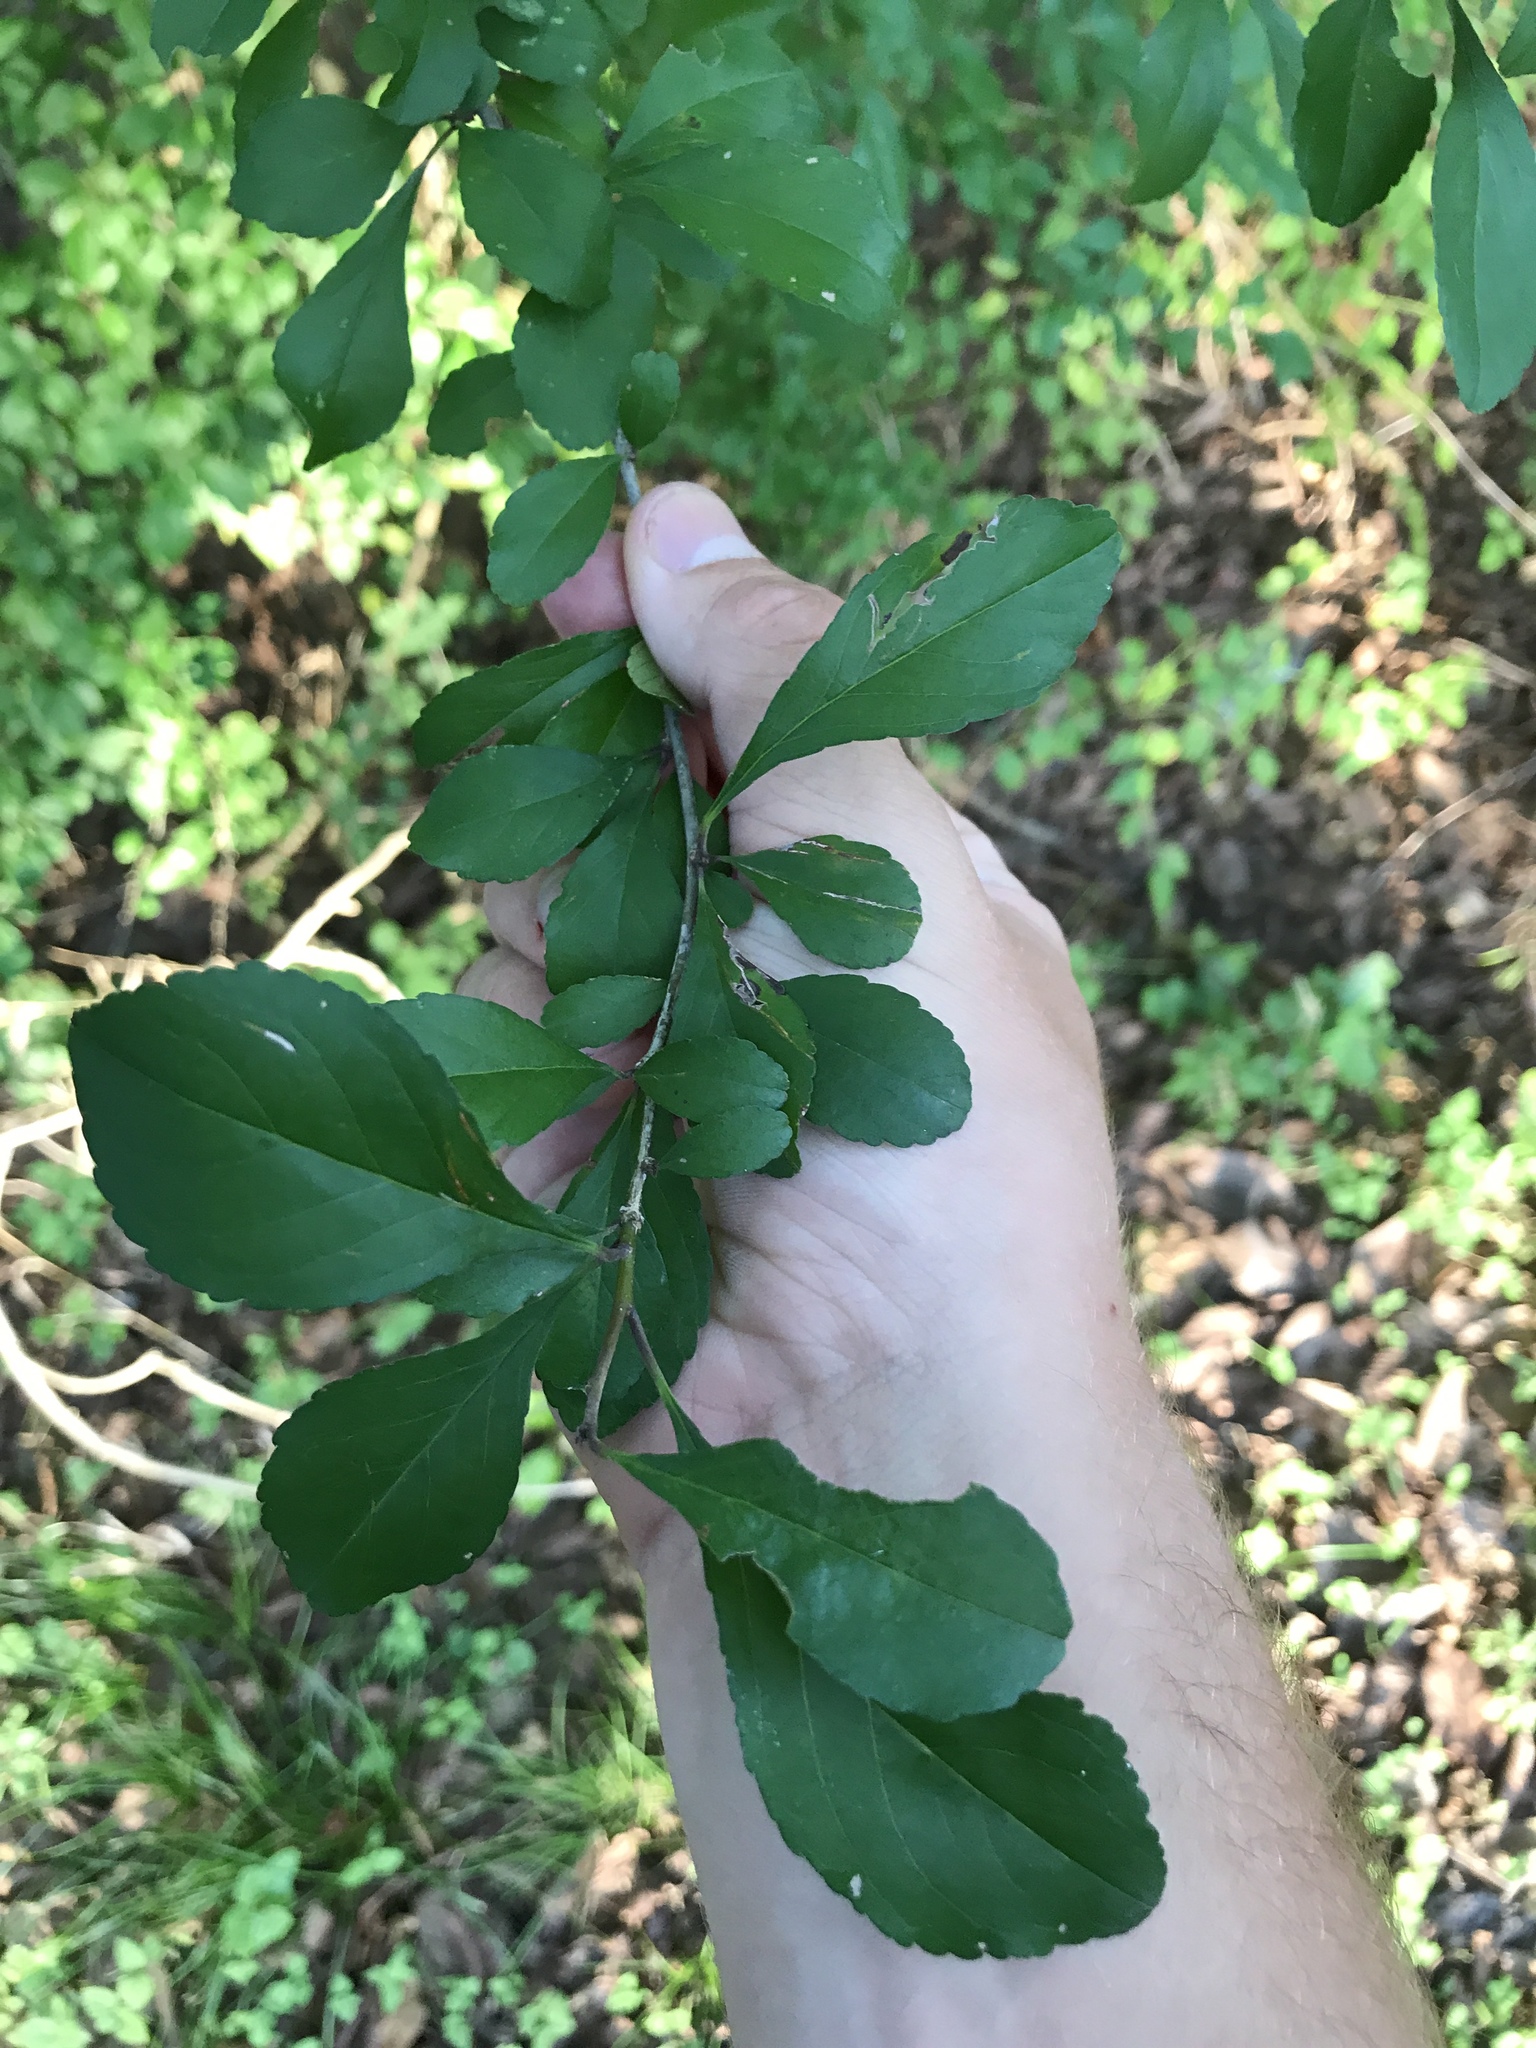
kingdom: Plantae
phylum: Tracheophyta
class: Magnoliopsida
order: Aquifoliales
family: Aquifoliaceae
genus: Ilex
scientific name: Ilex decidua
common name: Possum-haw
